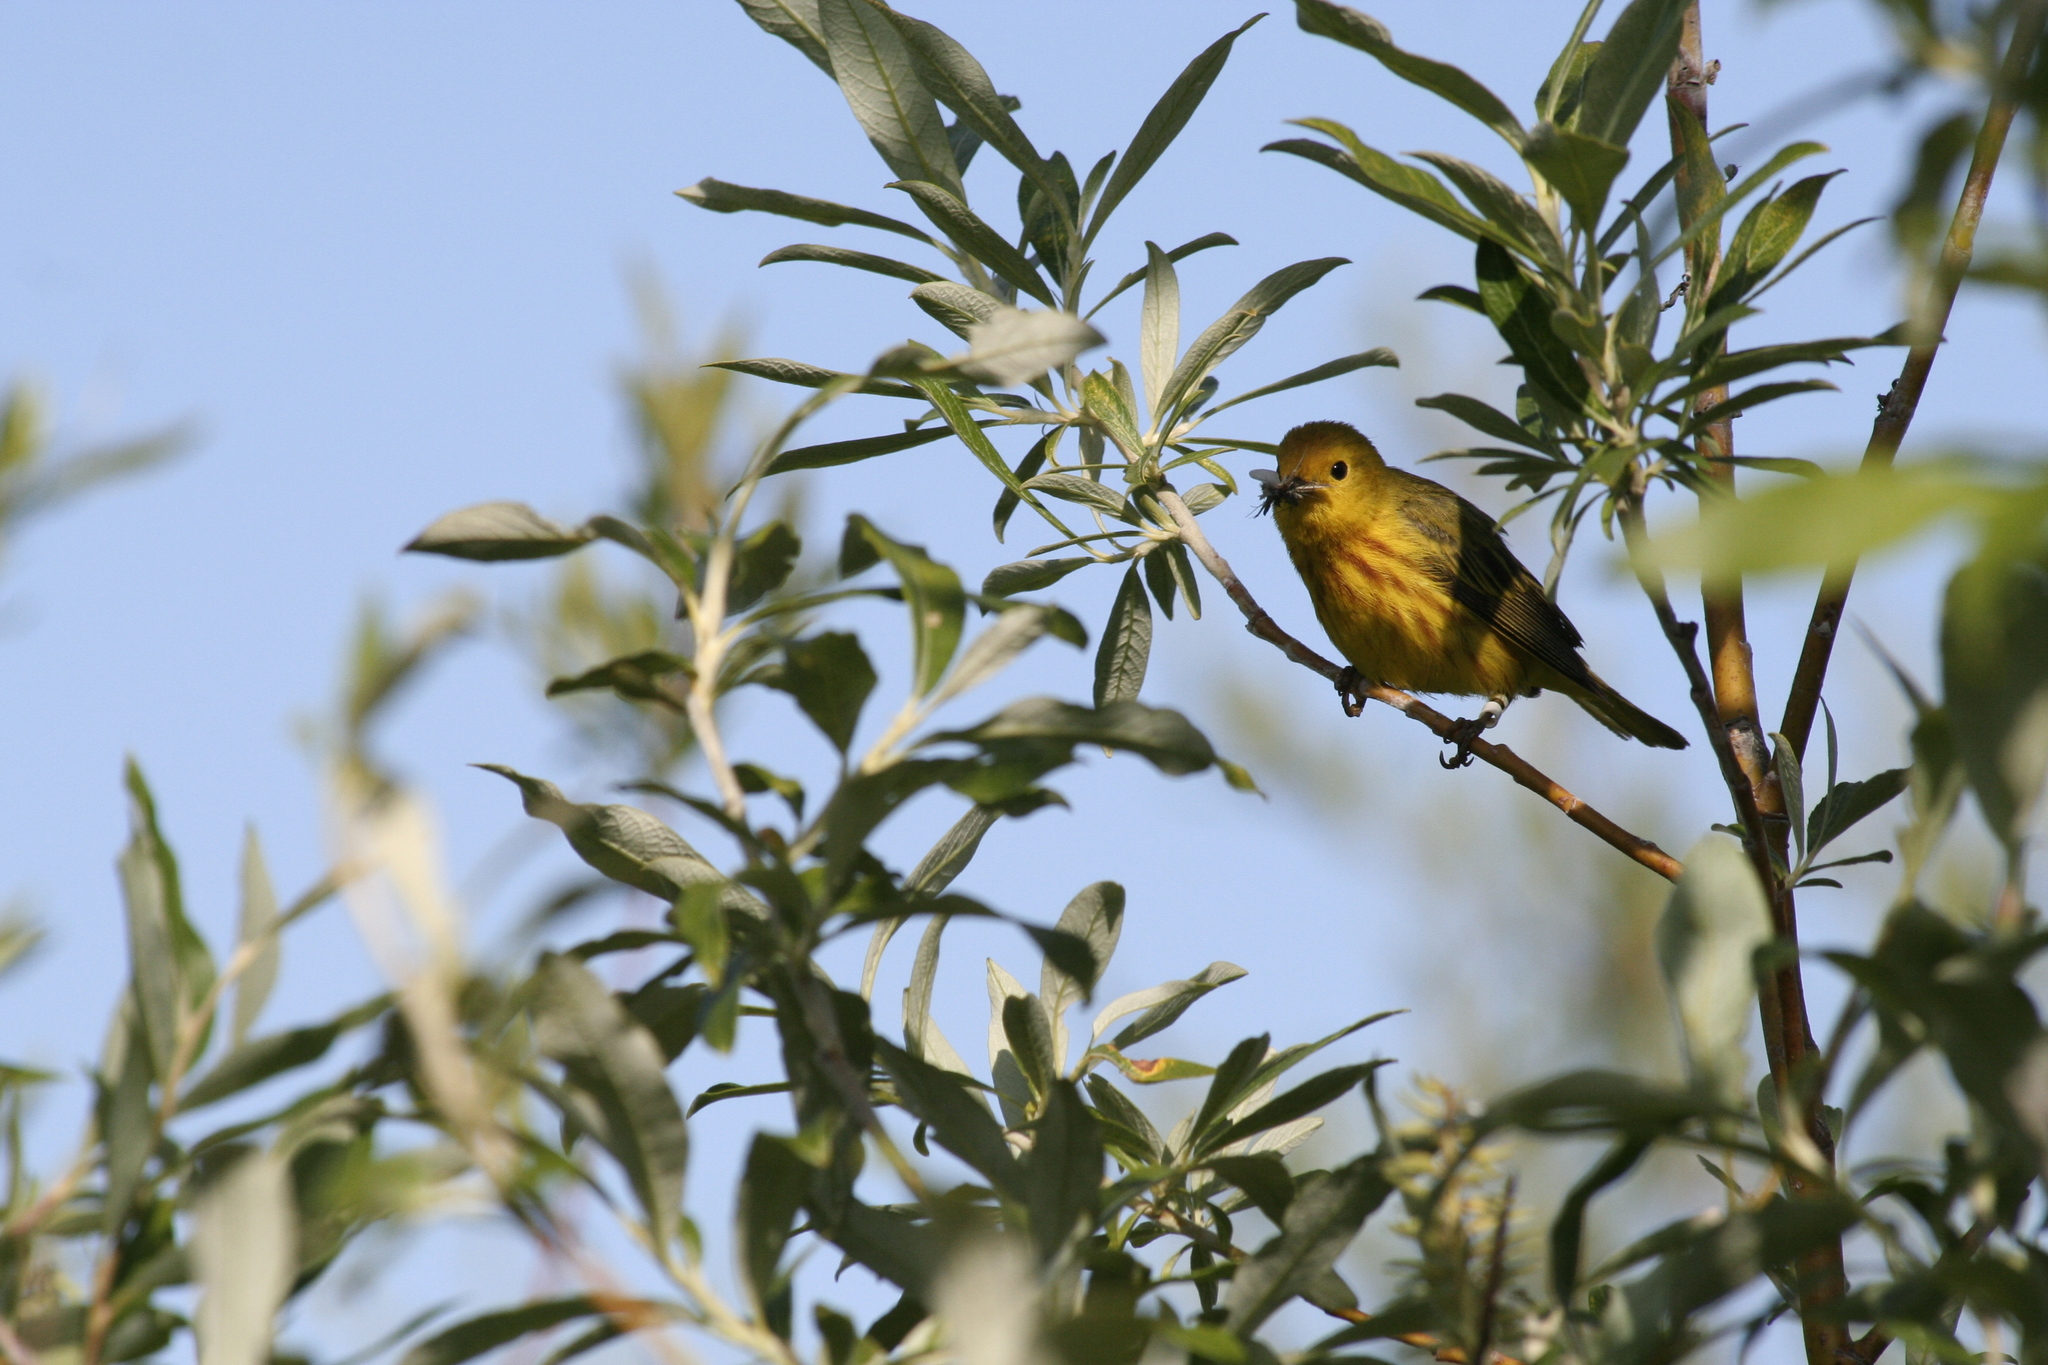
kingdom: Animalia
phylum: Chordata
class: Aves
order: Passeriformes
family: Parulidae
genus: Setophaga
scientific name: Setophaga petechia
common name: Yellow warbler
